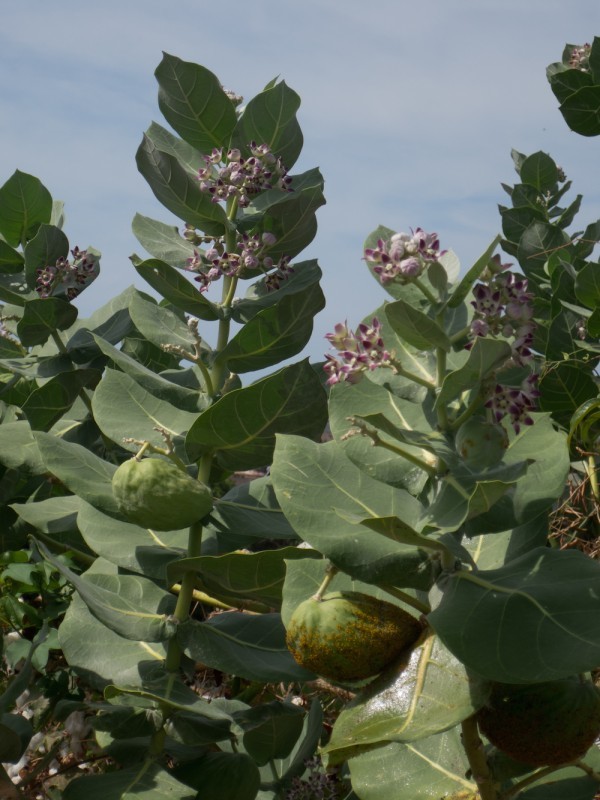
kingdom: Plantae
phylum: Tracheophyta
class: Magnoliopsida
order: Gentianales
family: Apocynaceae
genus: Calotropis
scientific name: Calotropis procera
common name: Roostertree
